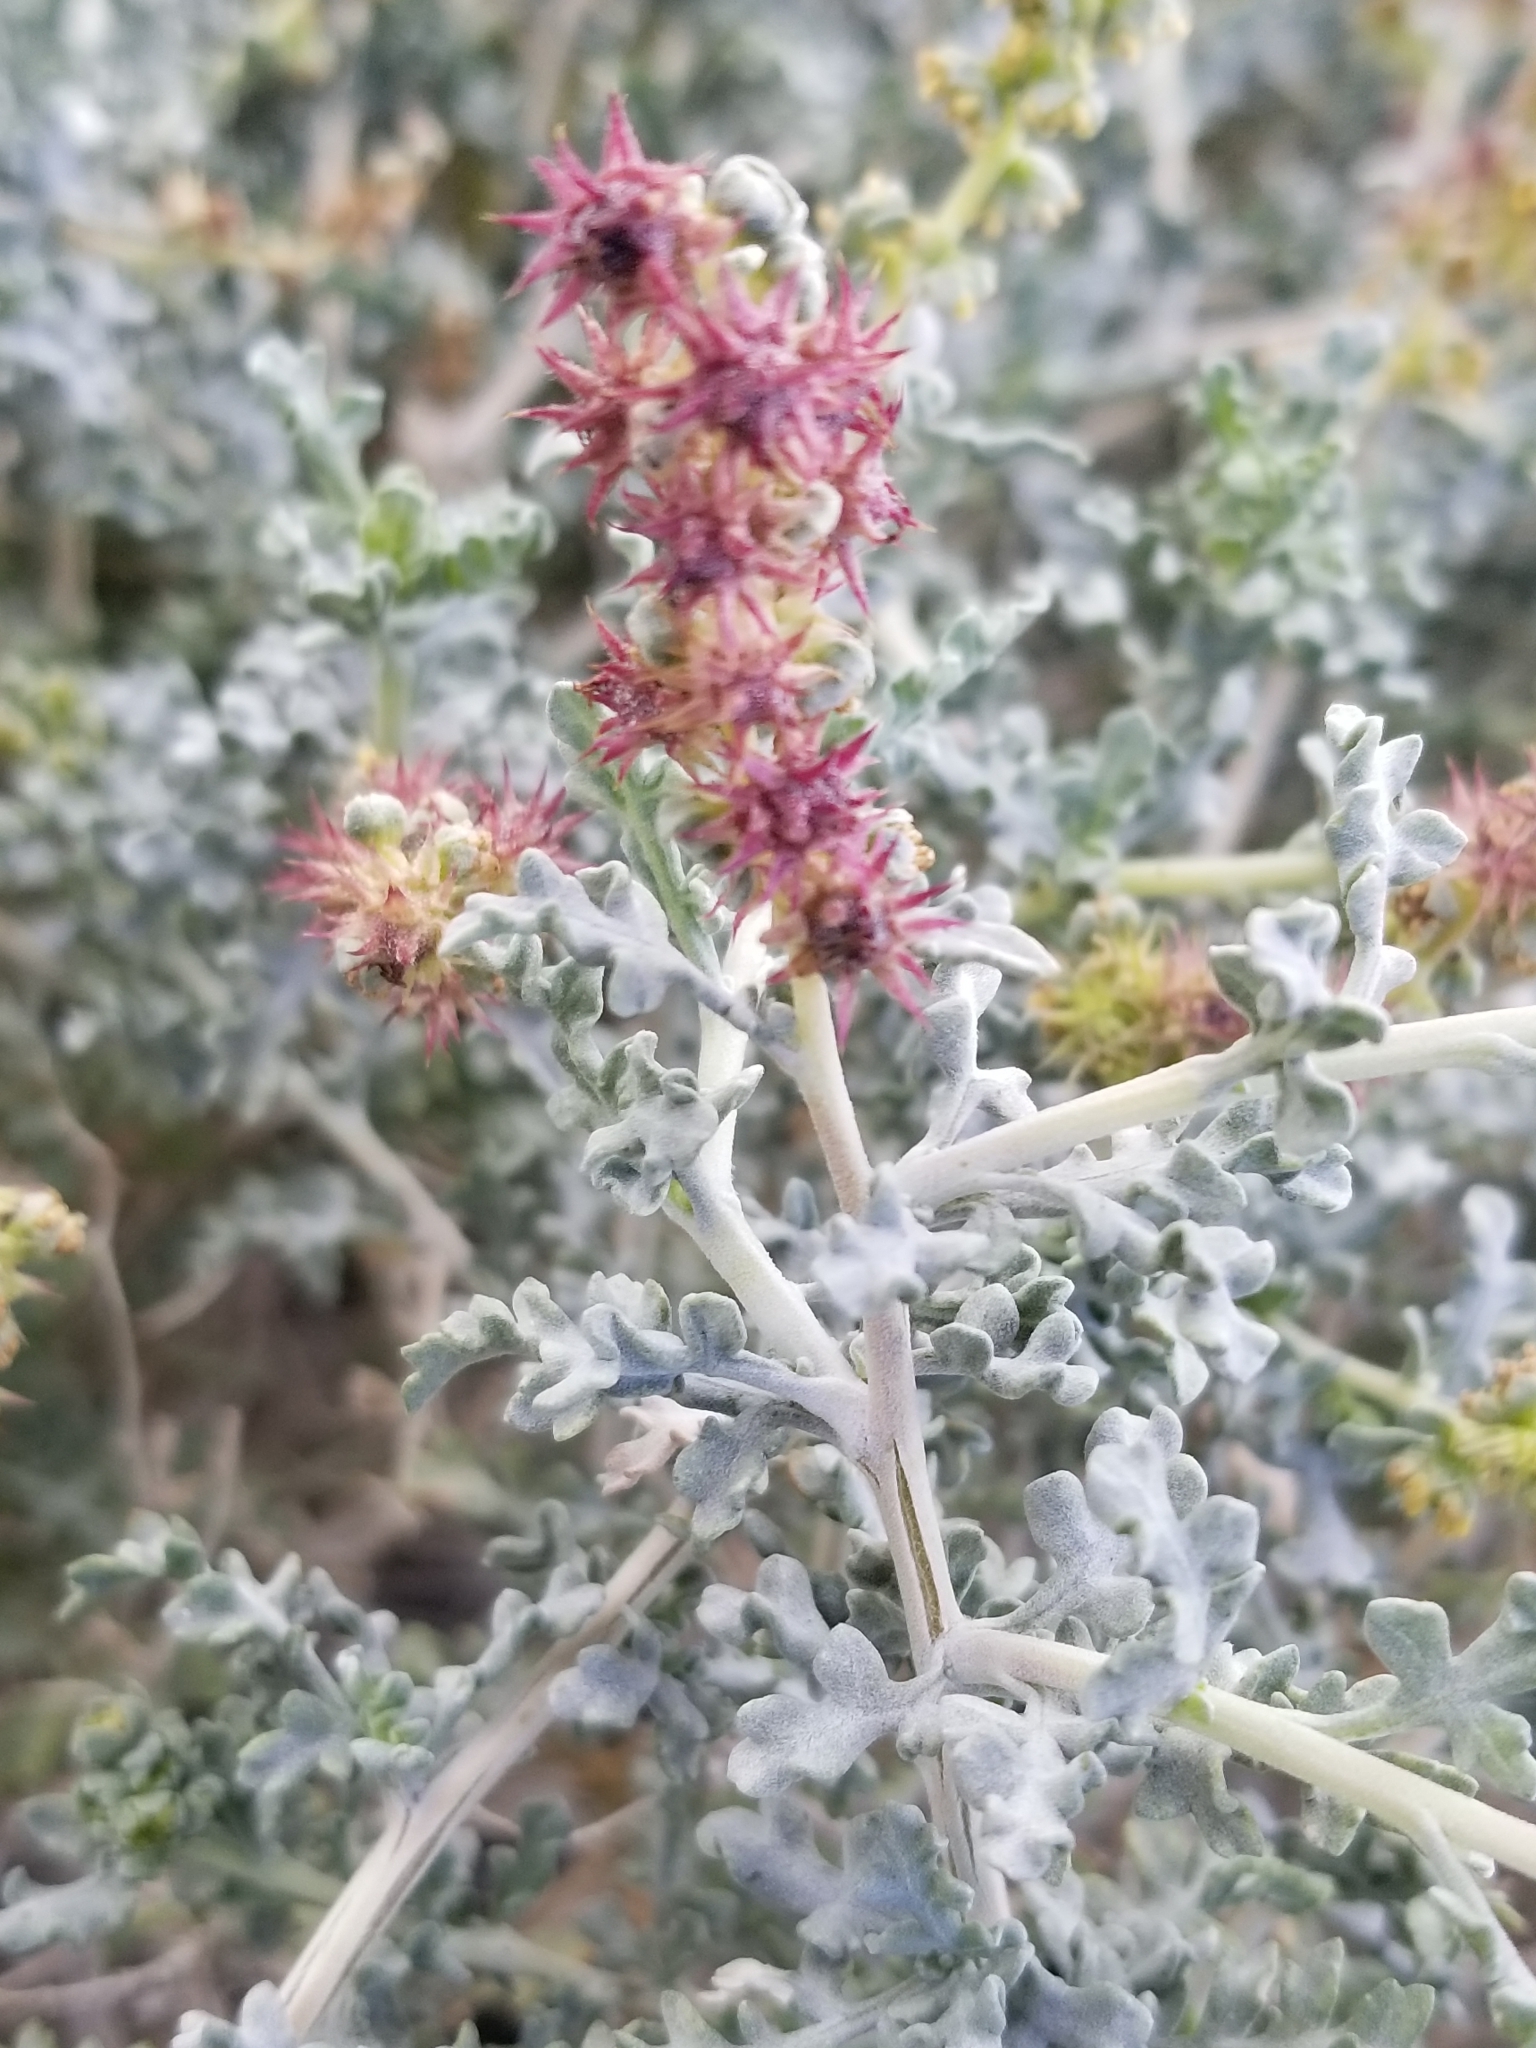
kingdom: Plantae
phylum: Tracheophyta
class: Magnoliopsida
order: Asterales
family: Asteraceae
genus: Ambrosia
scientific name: Ambrosia dumosa
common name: Bur-sage
